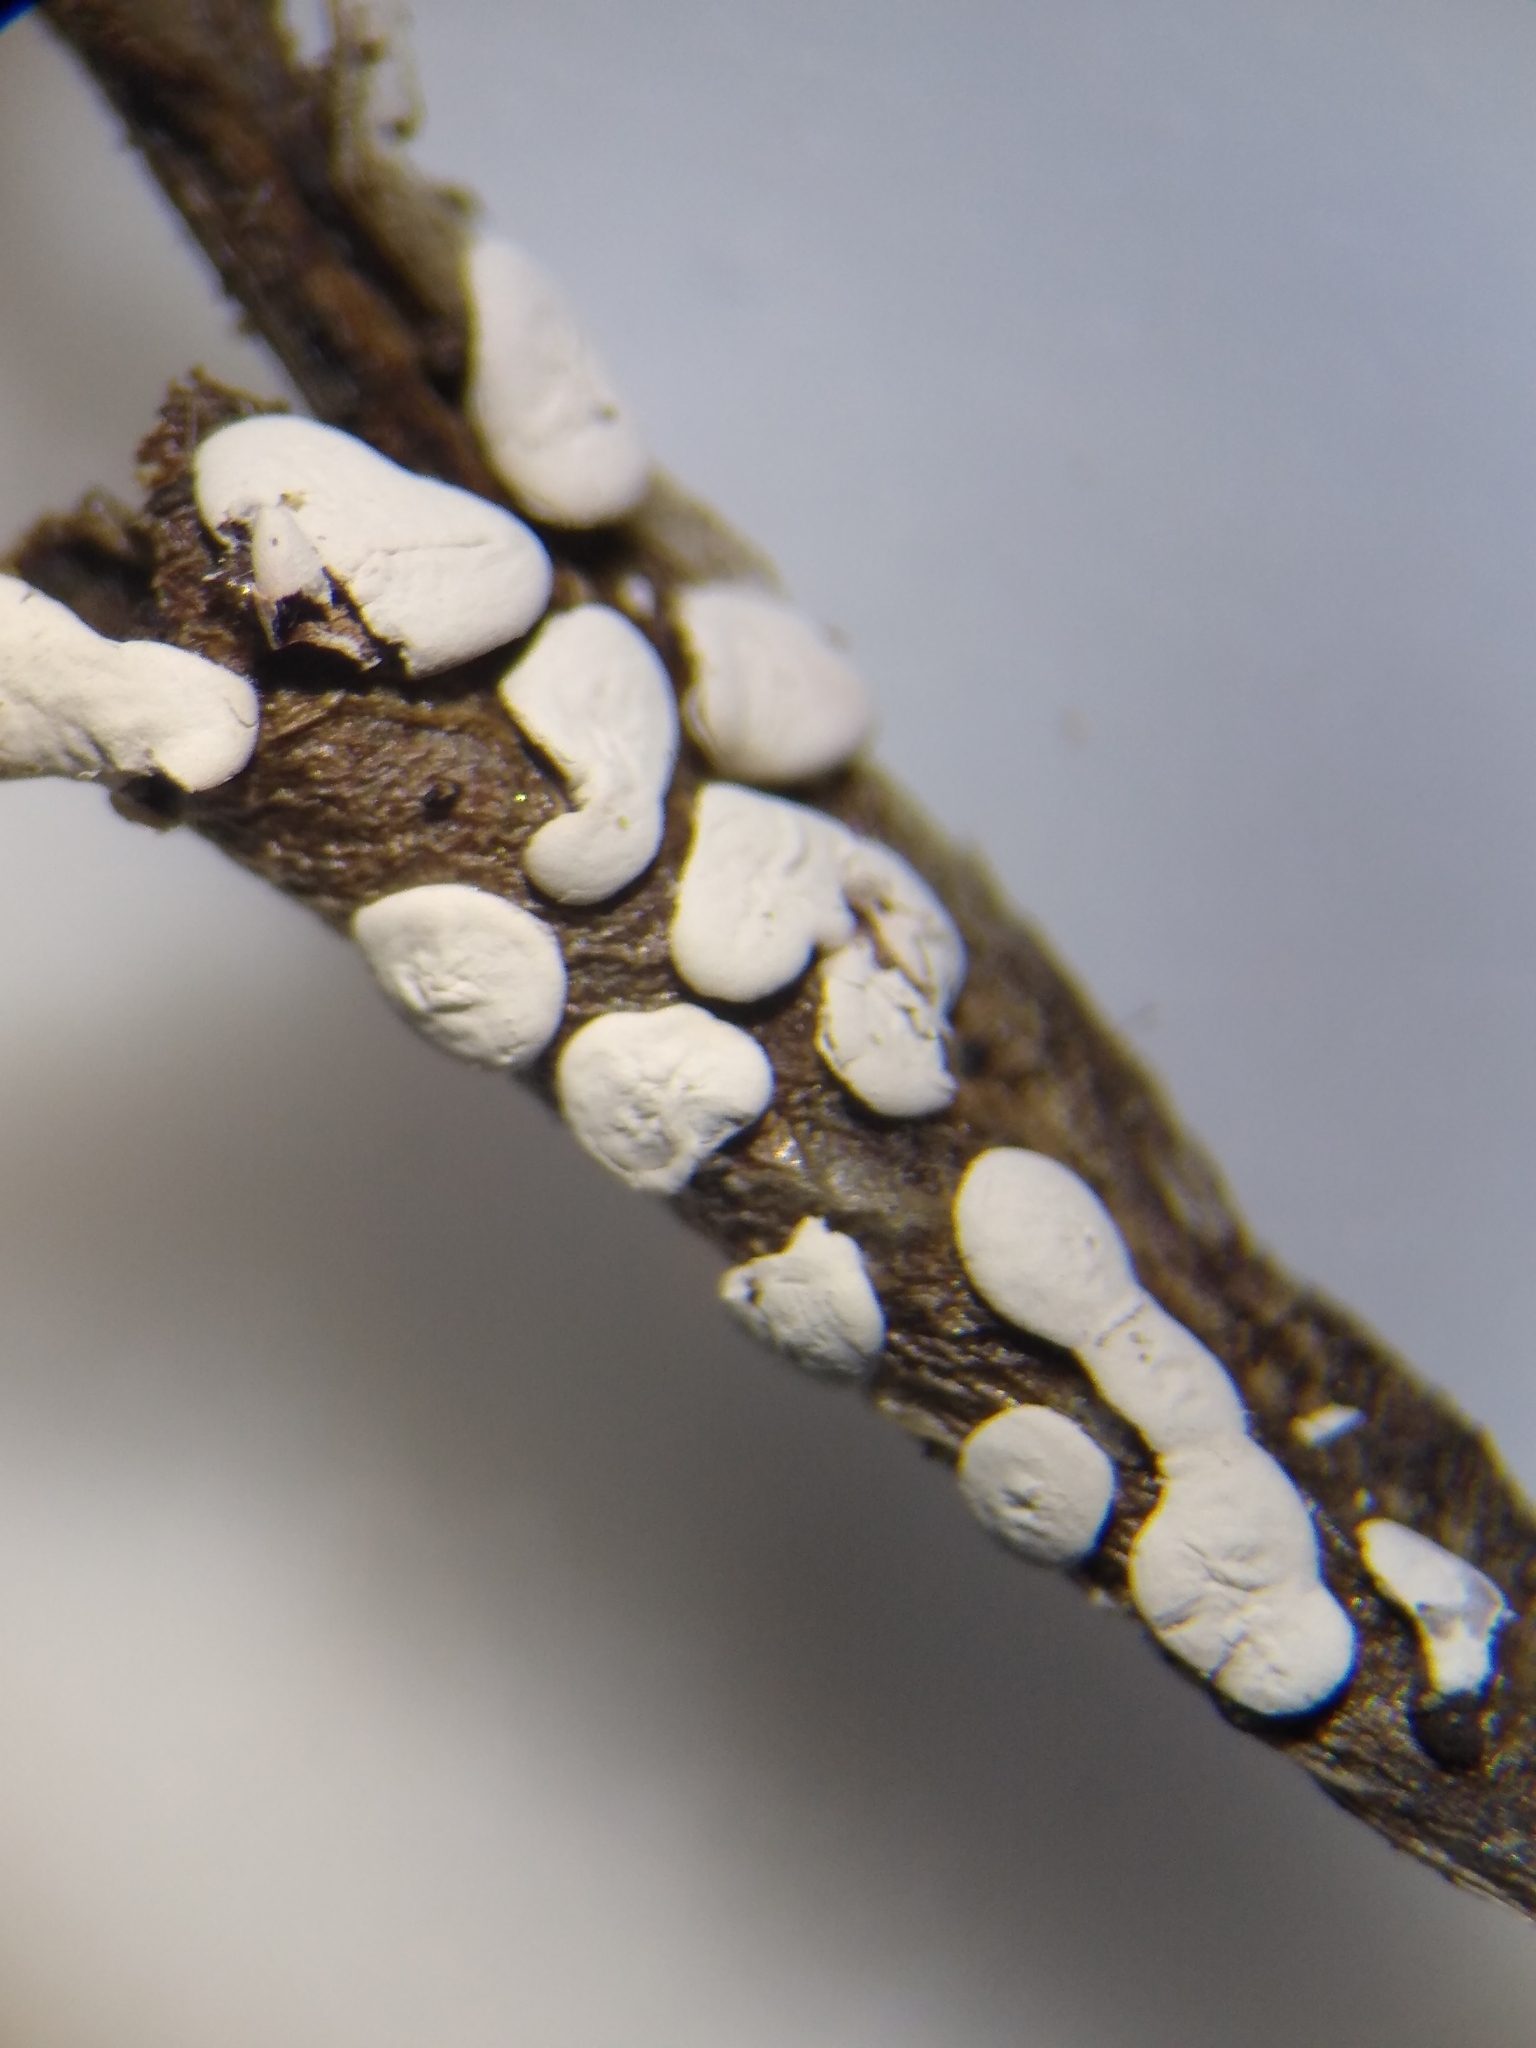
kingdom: Protozoa
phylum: Mycetozoa
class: Myxomycetes
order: Physarales
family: Didymiaceae
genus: Diderma
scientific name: Diderma effusum
